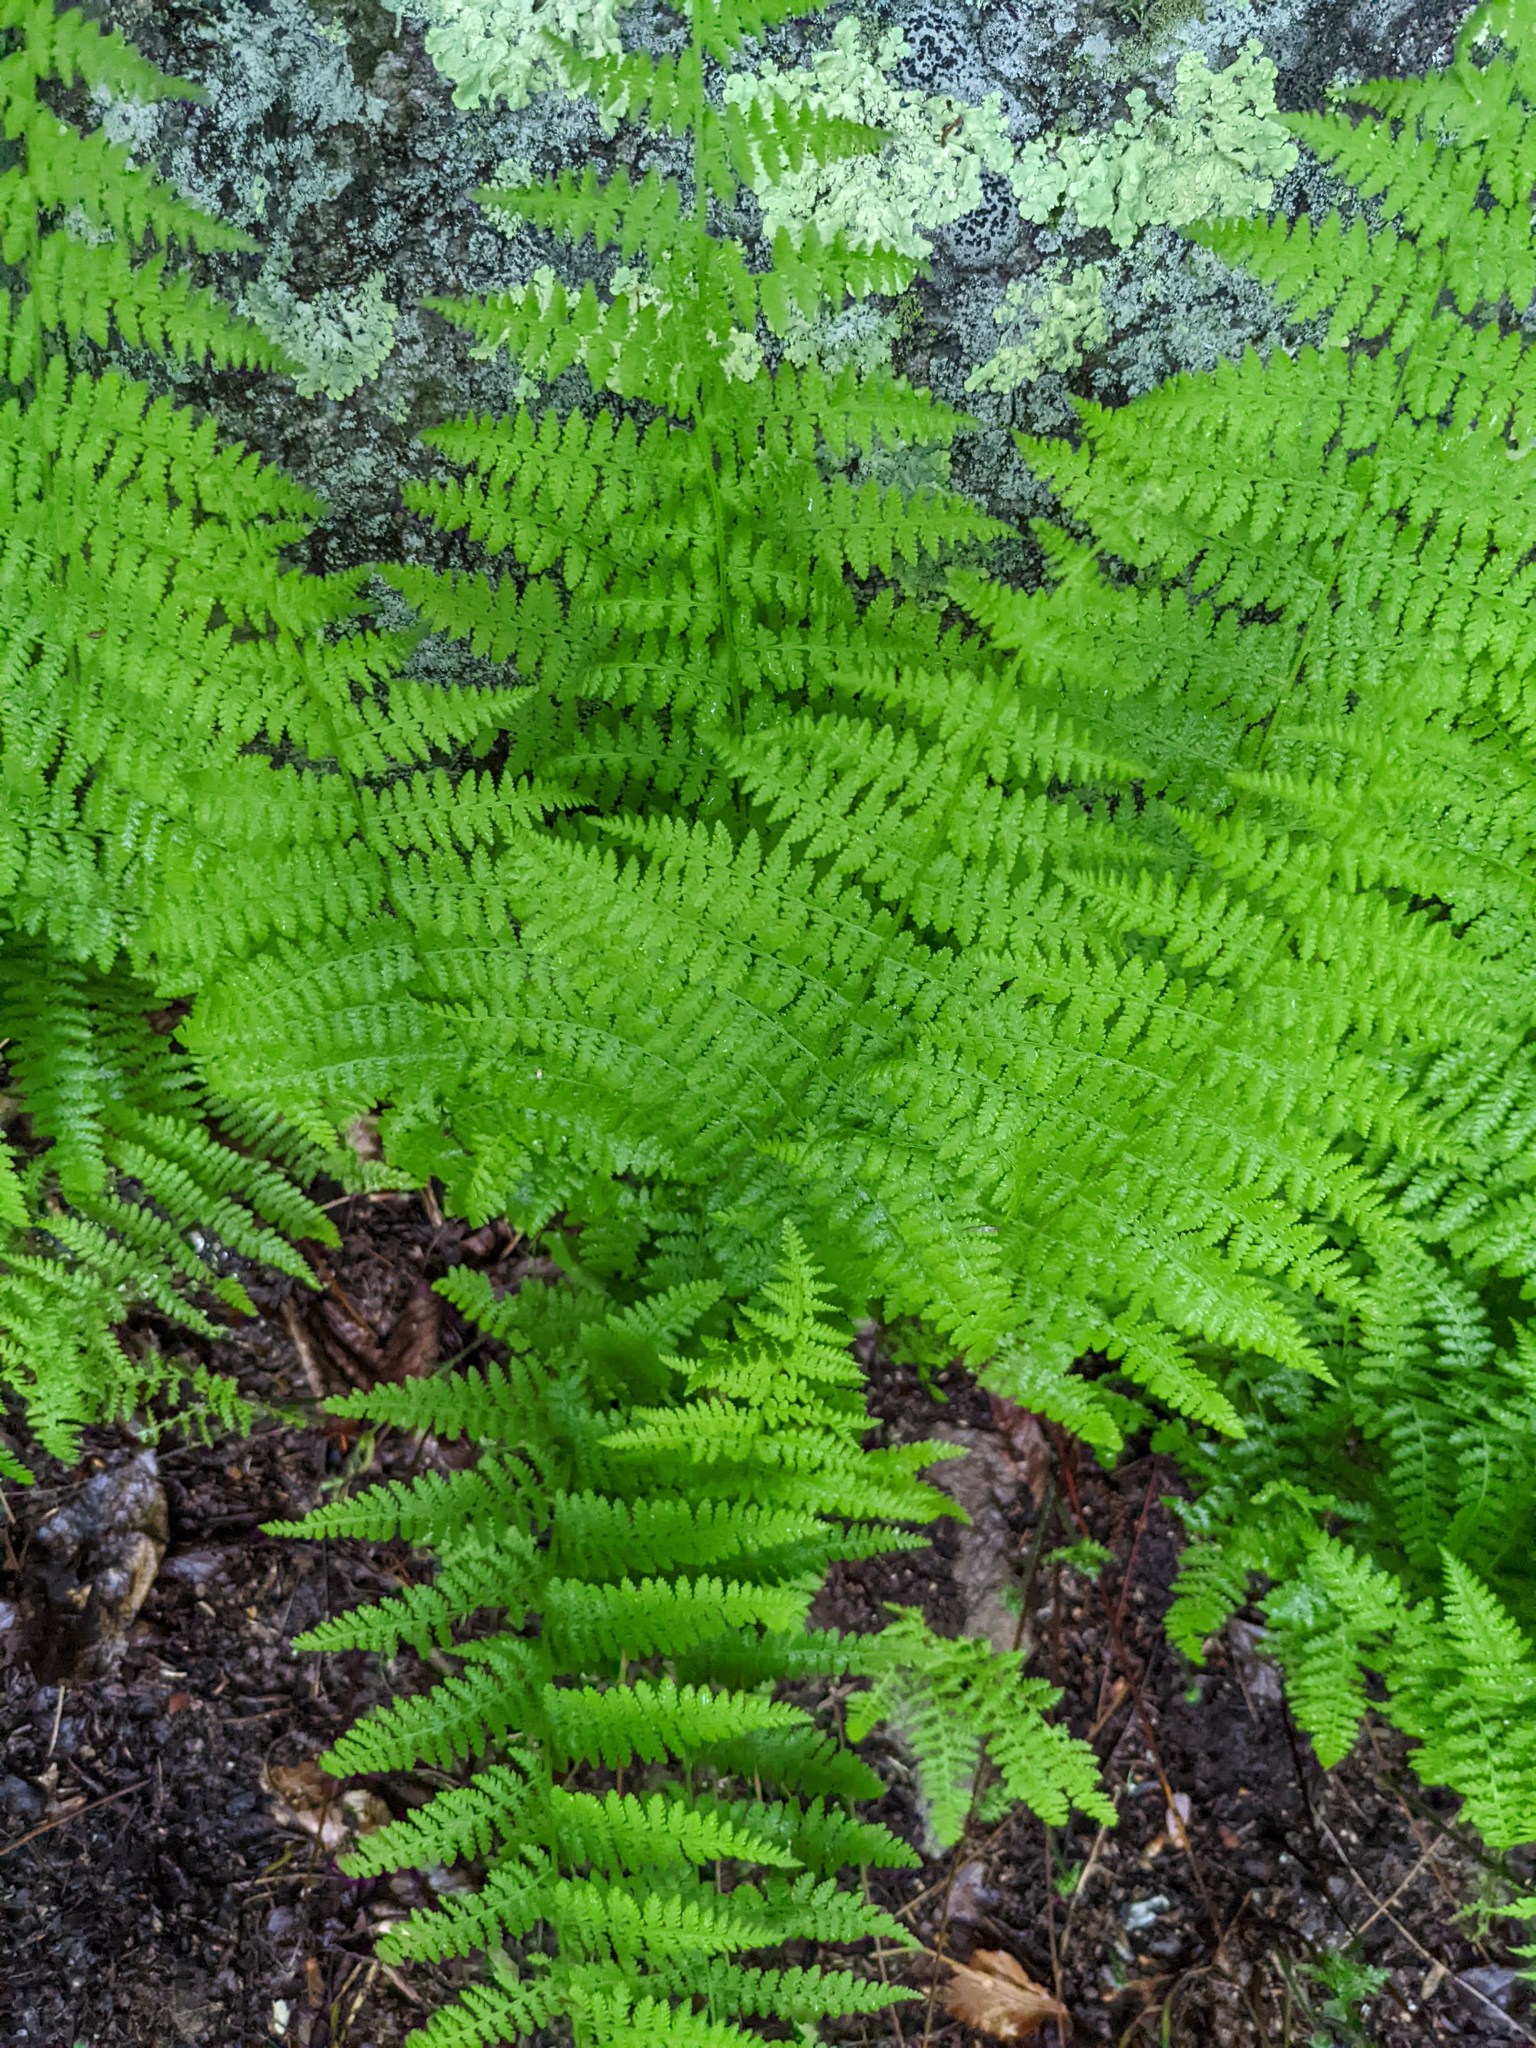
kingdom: Plantae
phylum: Tracheophyta
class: Polypodiopsida
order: Polypodiales
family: Dennstaedtiaceae
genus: Sitobolium
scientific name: Sitobolium punctilobum
